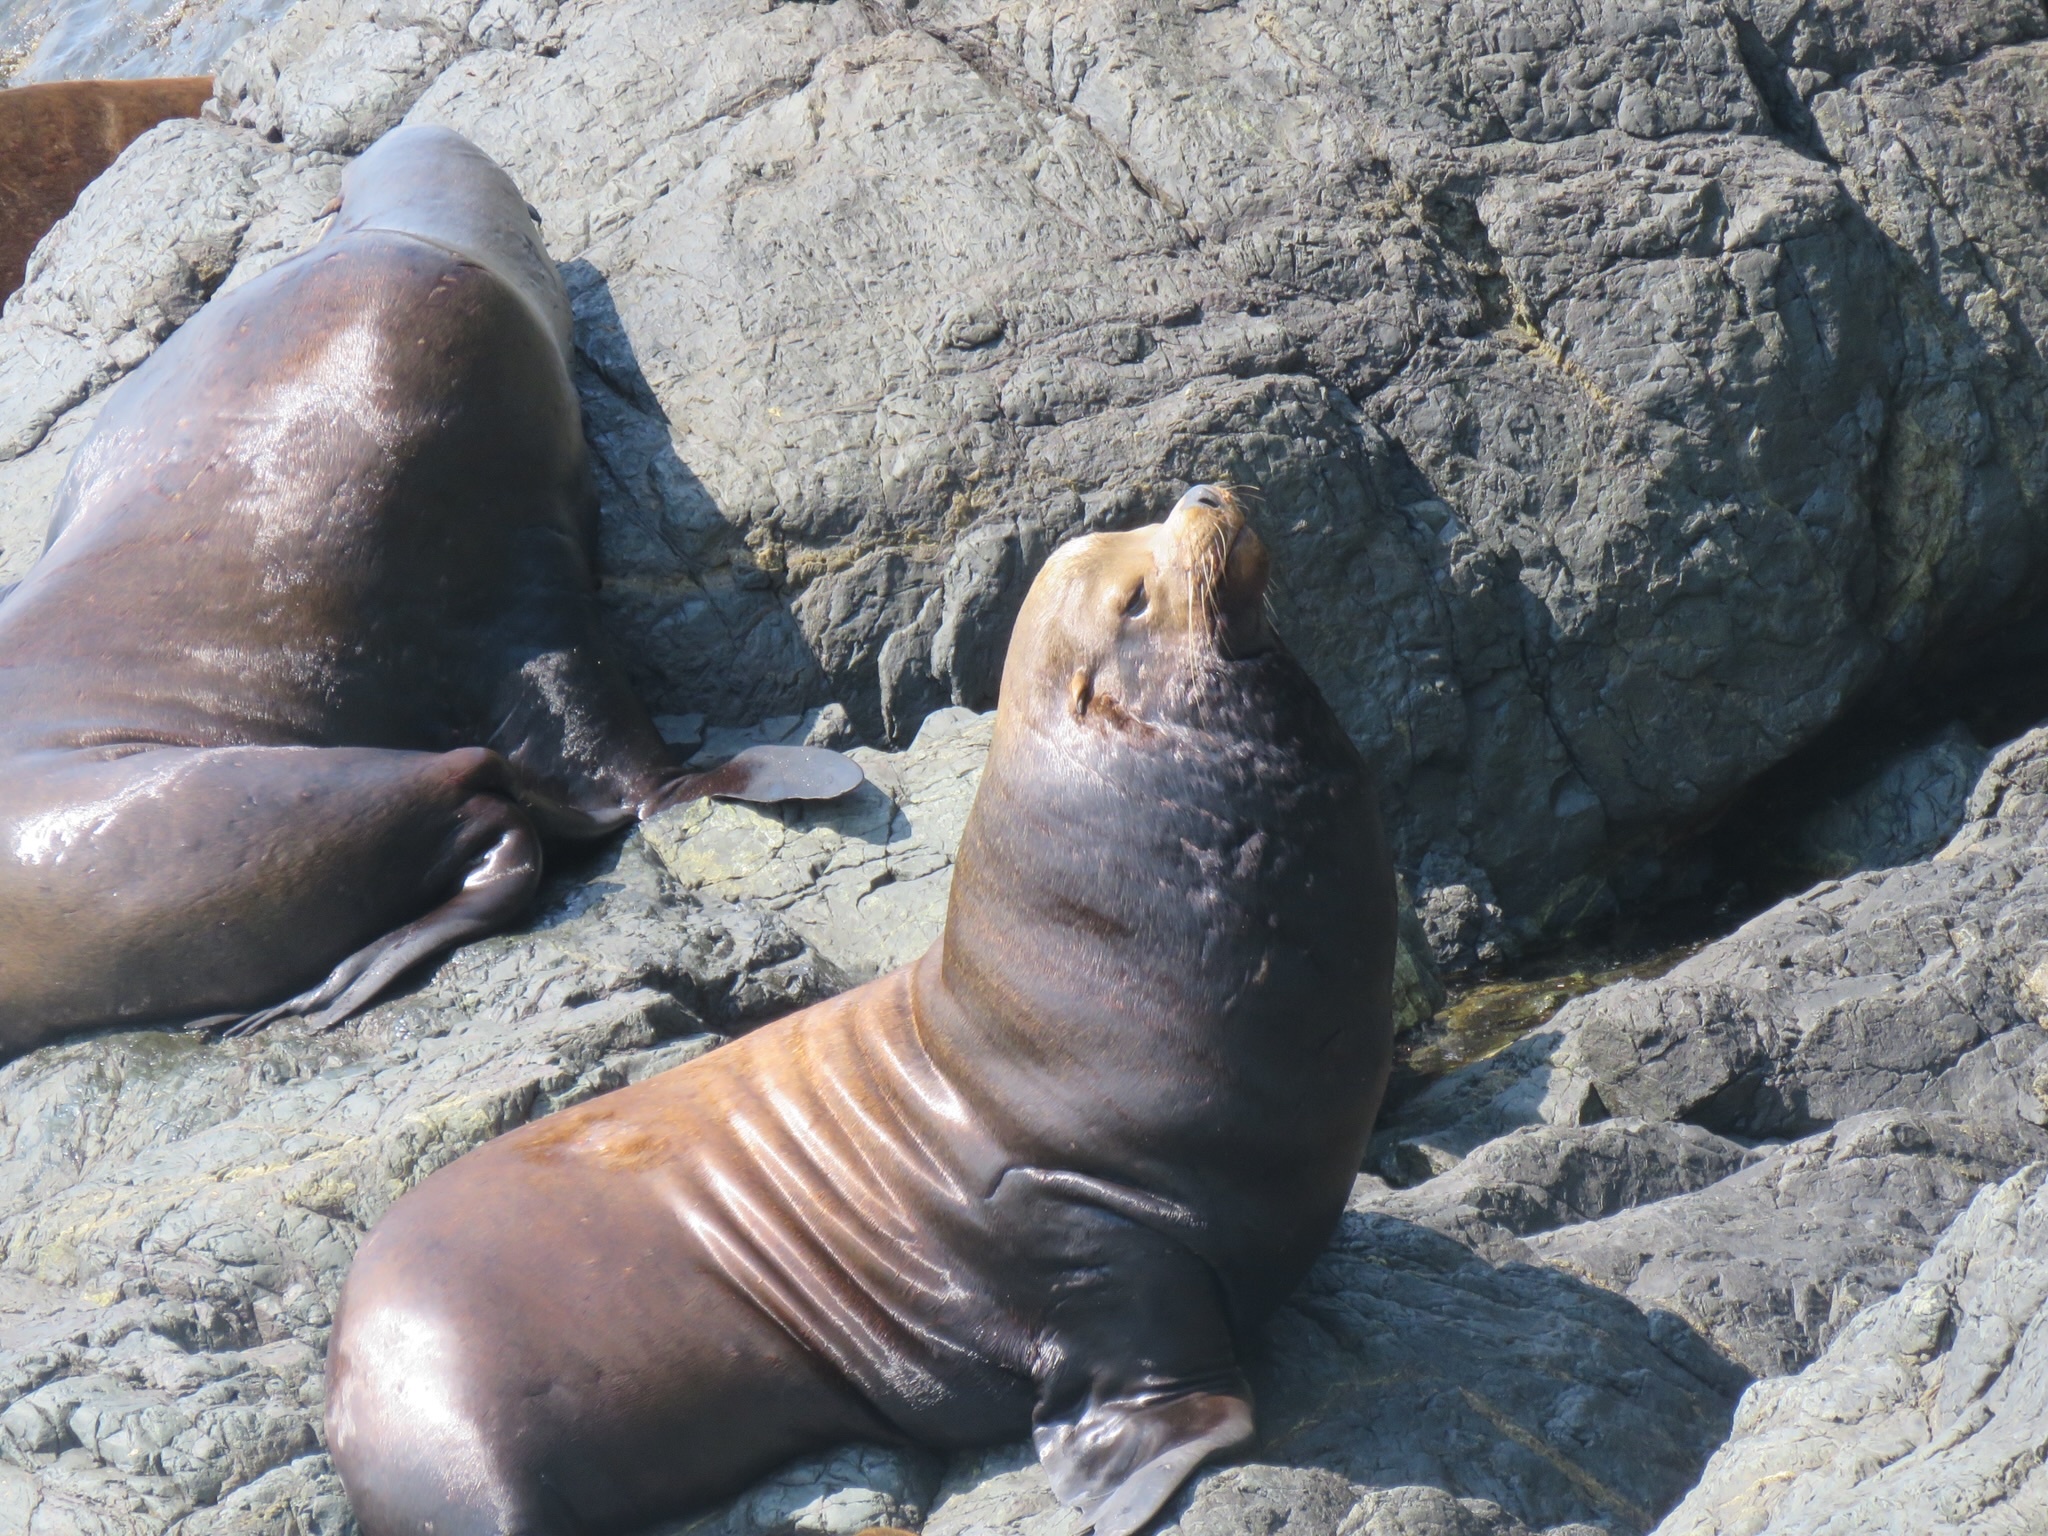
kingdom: Animalia
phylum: Chordata
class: Mammalia
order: Carnivora
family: Otariidae
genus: Zalophus
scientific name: Zalophus californianus
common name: California sea lion
